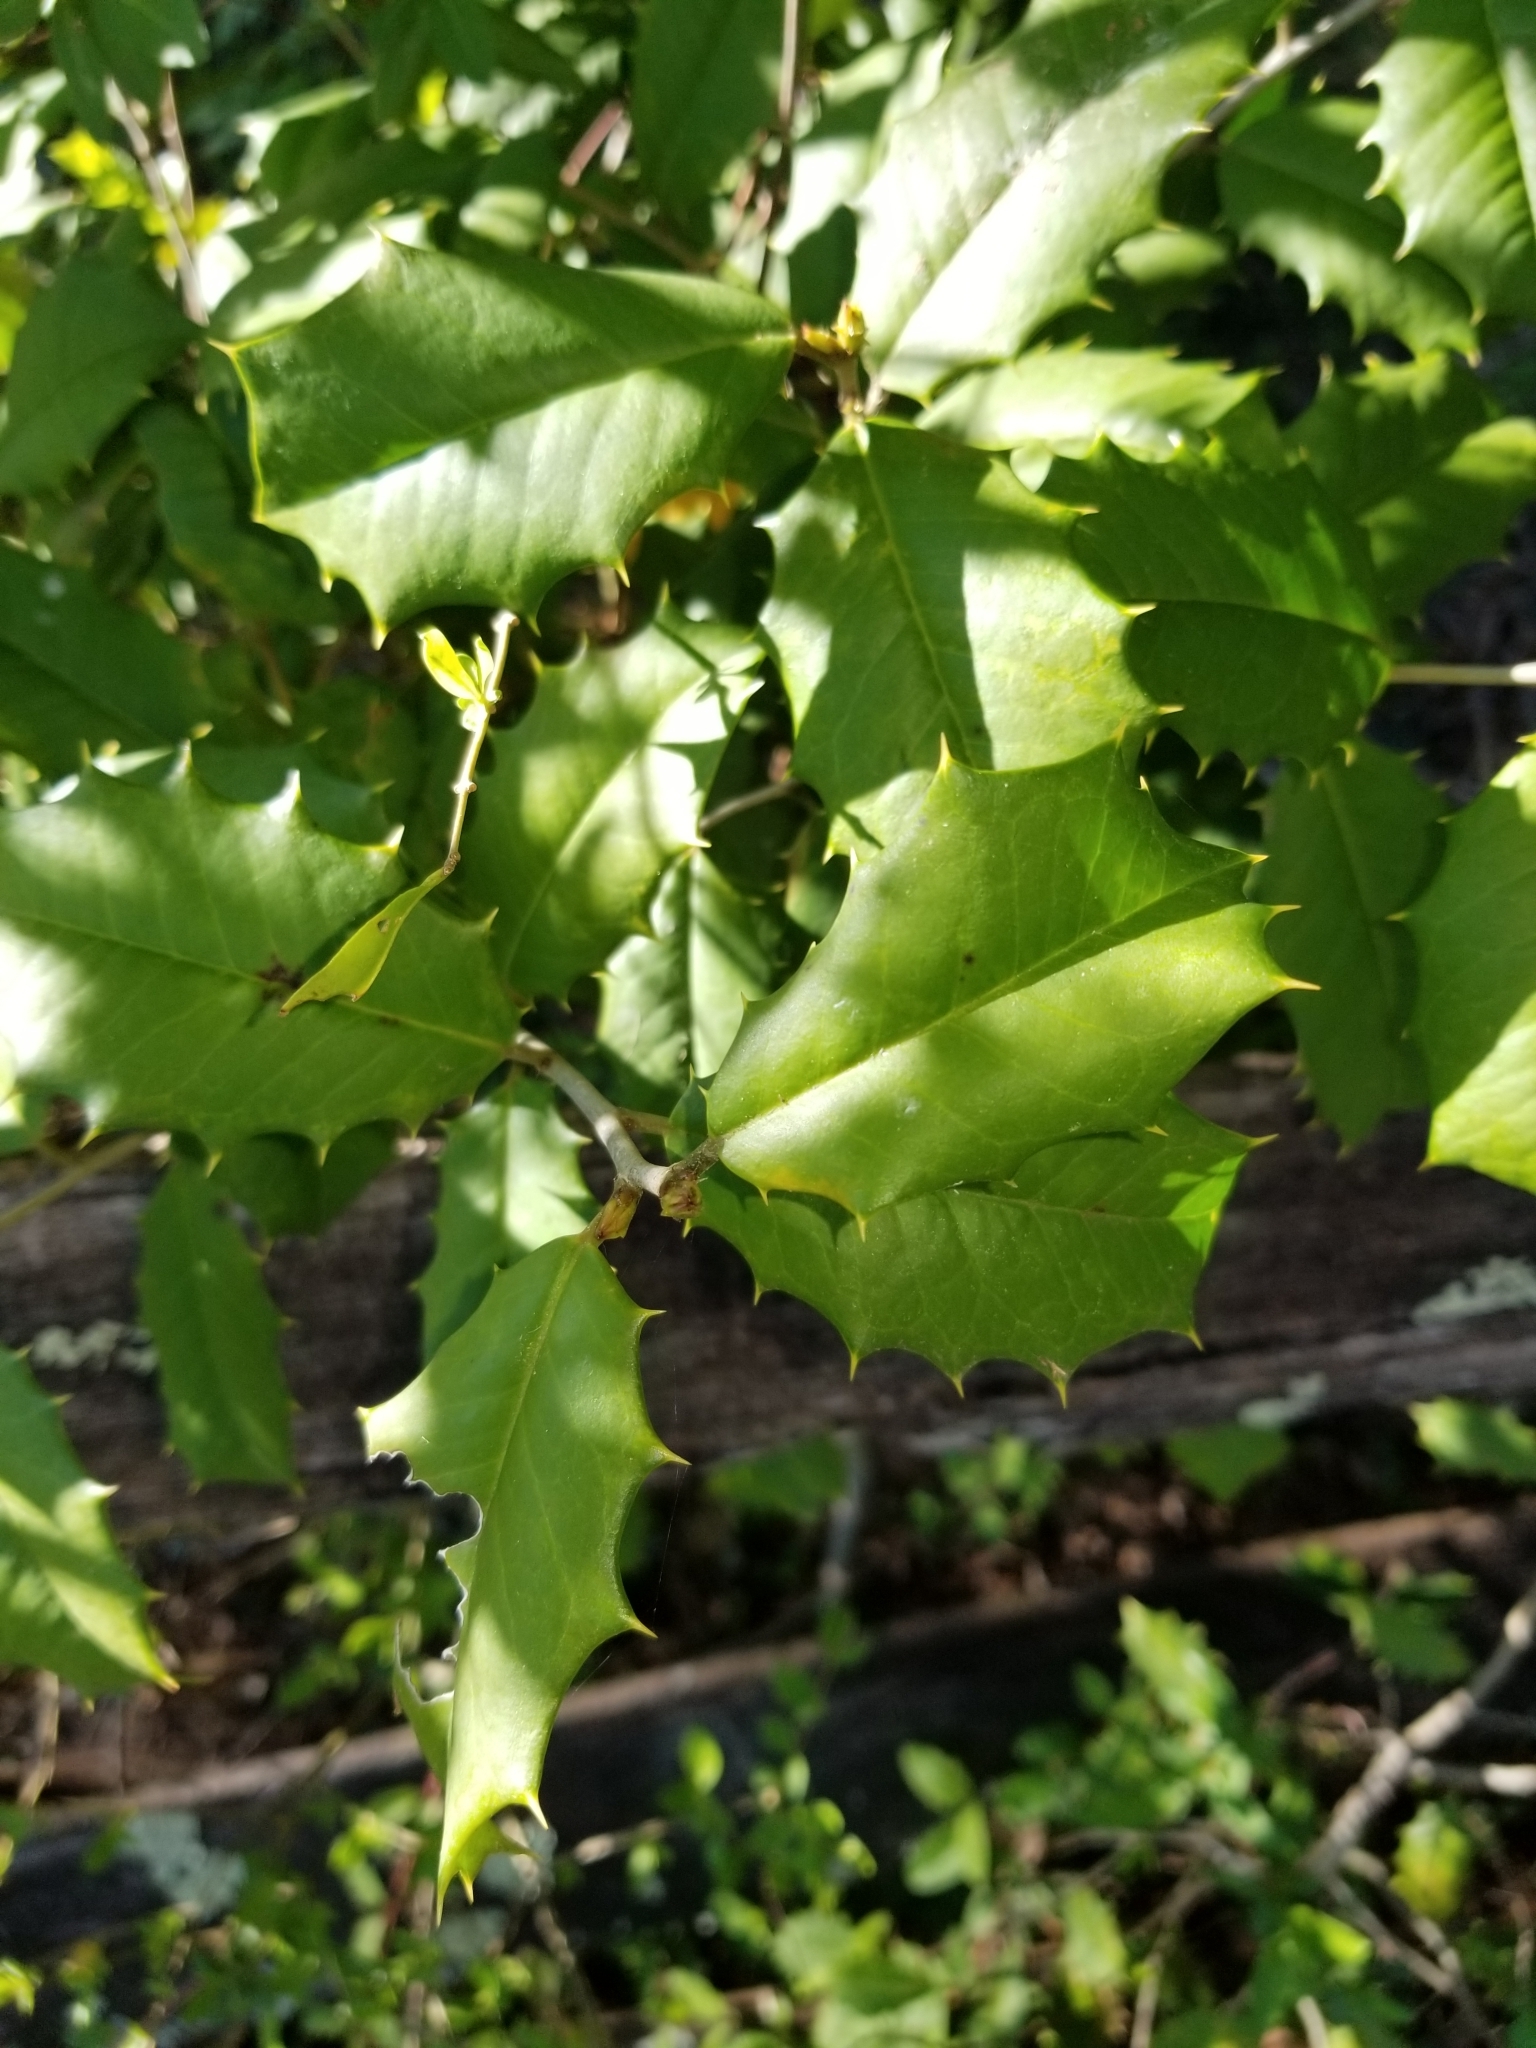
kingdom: Plantae
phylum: Tracheophyta
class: Magnoliopsida
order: Aquifoliales
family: Aquifoliaceae
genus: Ilex
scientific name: Ilex opaca
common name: American holly
